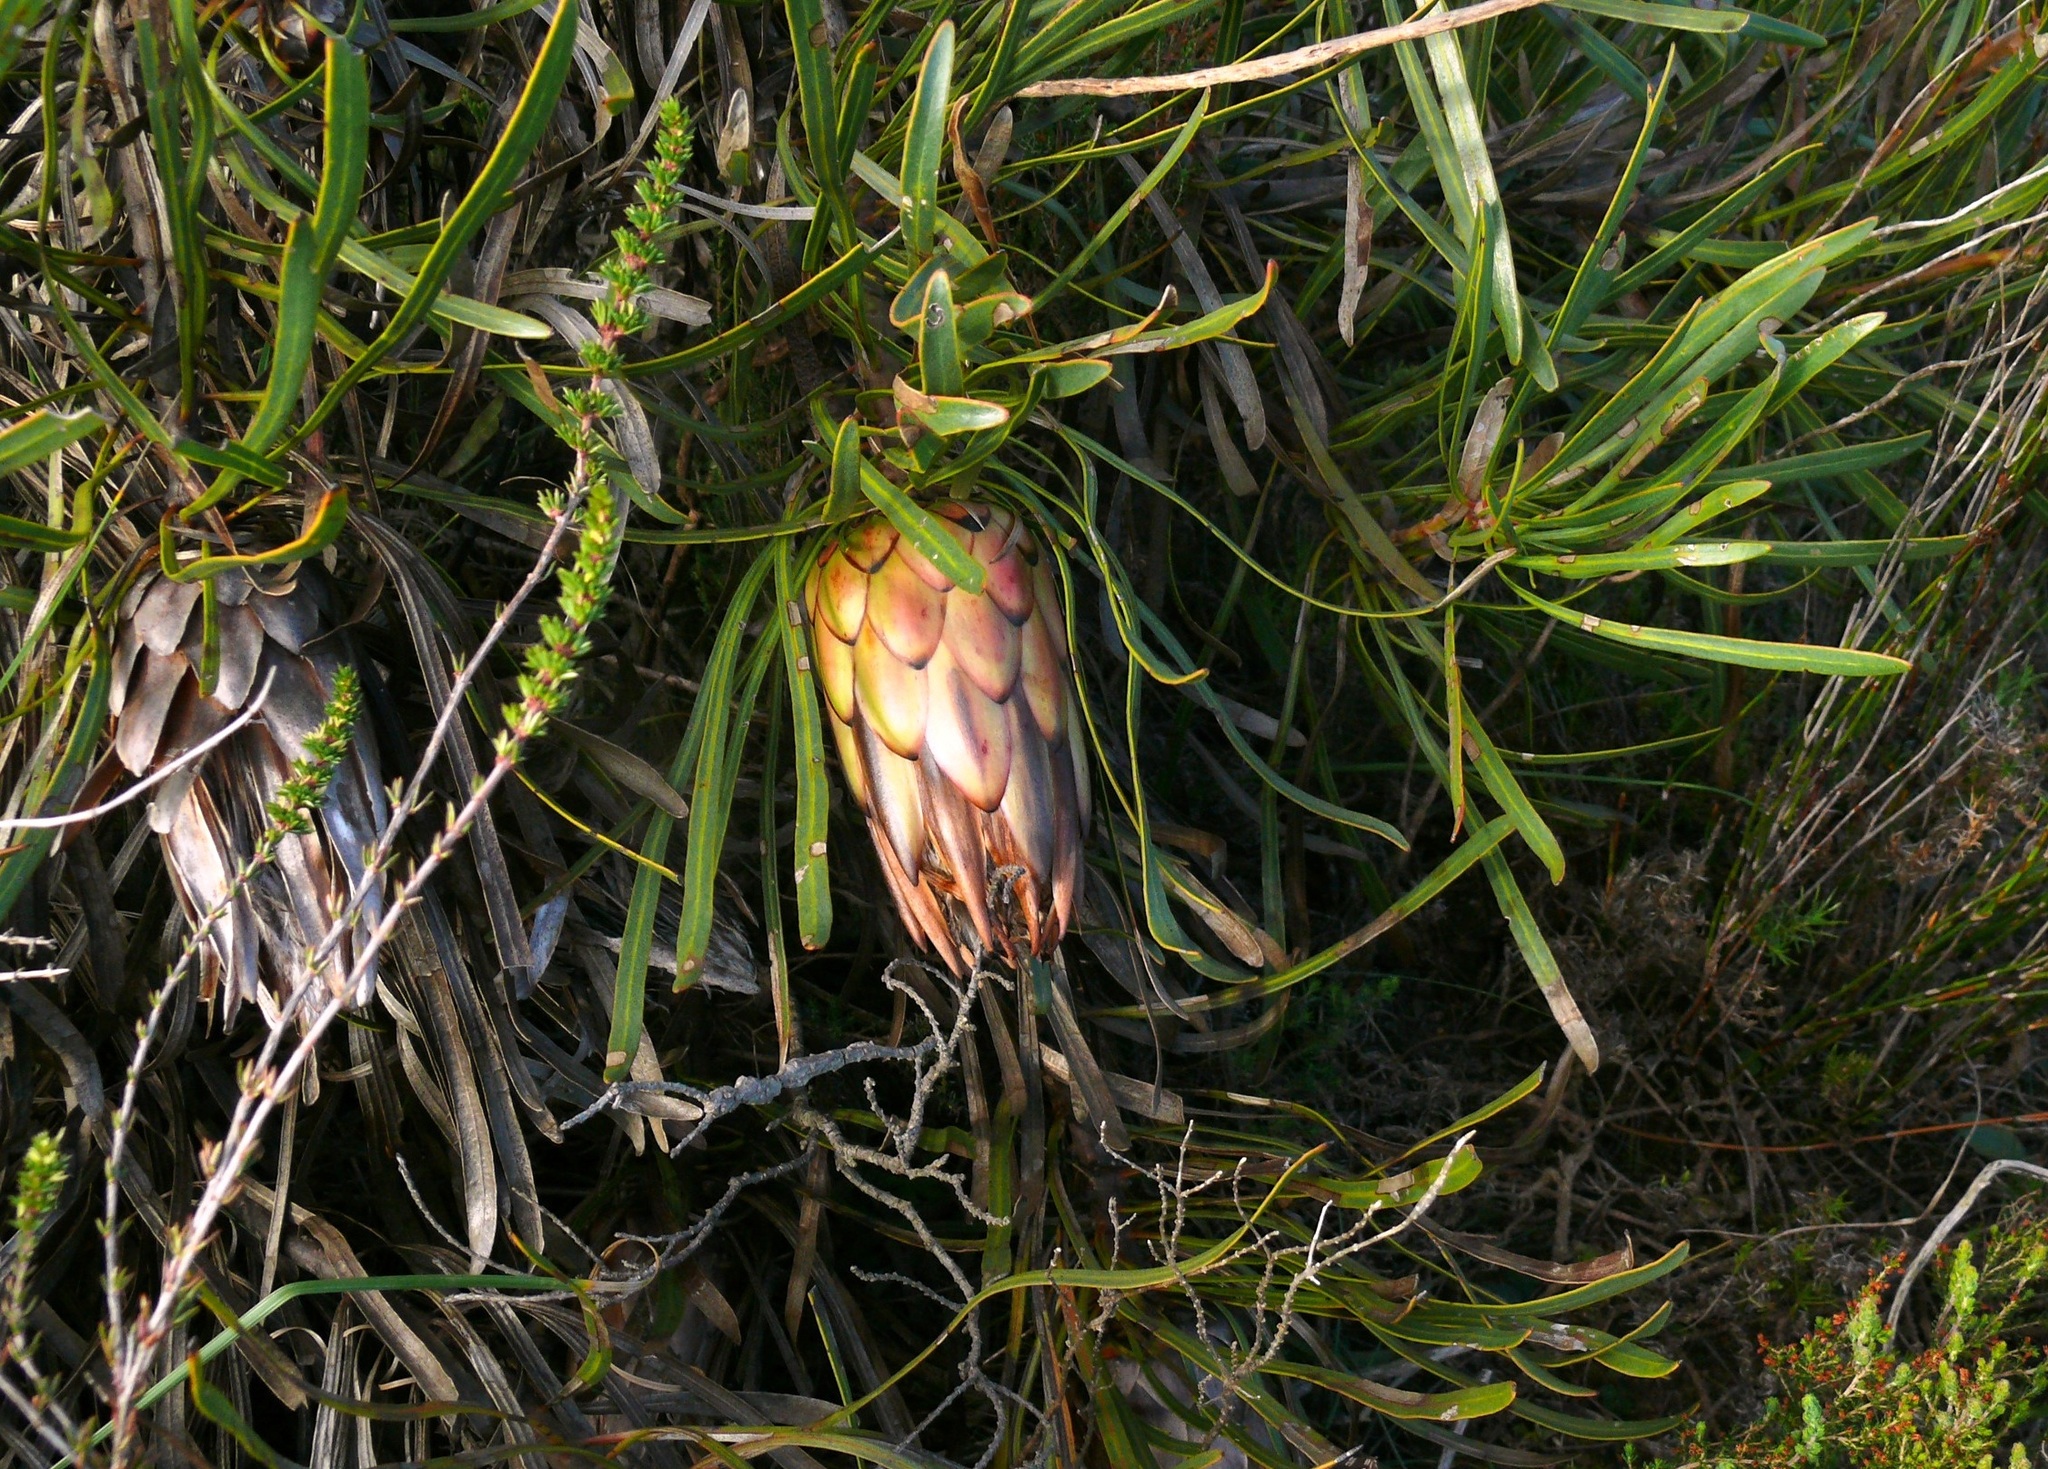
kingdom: Plantae
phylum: Tracheophyta
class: Magnoliopsida
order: Proteales
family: Proteaceae
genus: Protea
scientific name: Protea longifolia
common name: Long-leaf sugarbush
